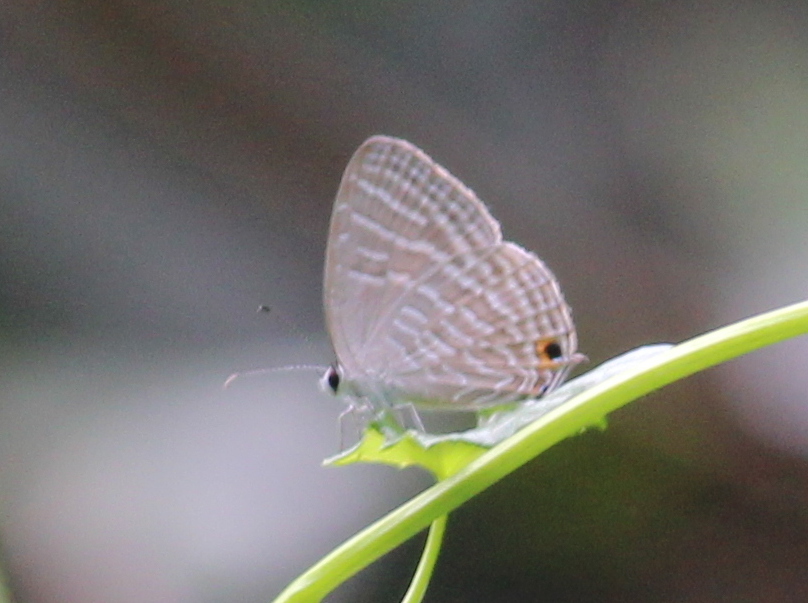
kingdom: Animalia
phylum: Arthropoda
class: Insecta
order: Lepidoptera
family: Lycaenidae
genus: Jamides
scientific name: Jamides celeno
